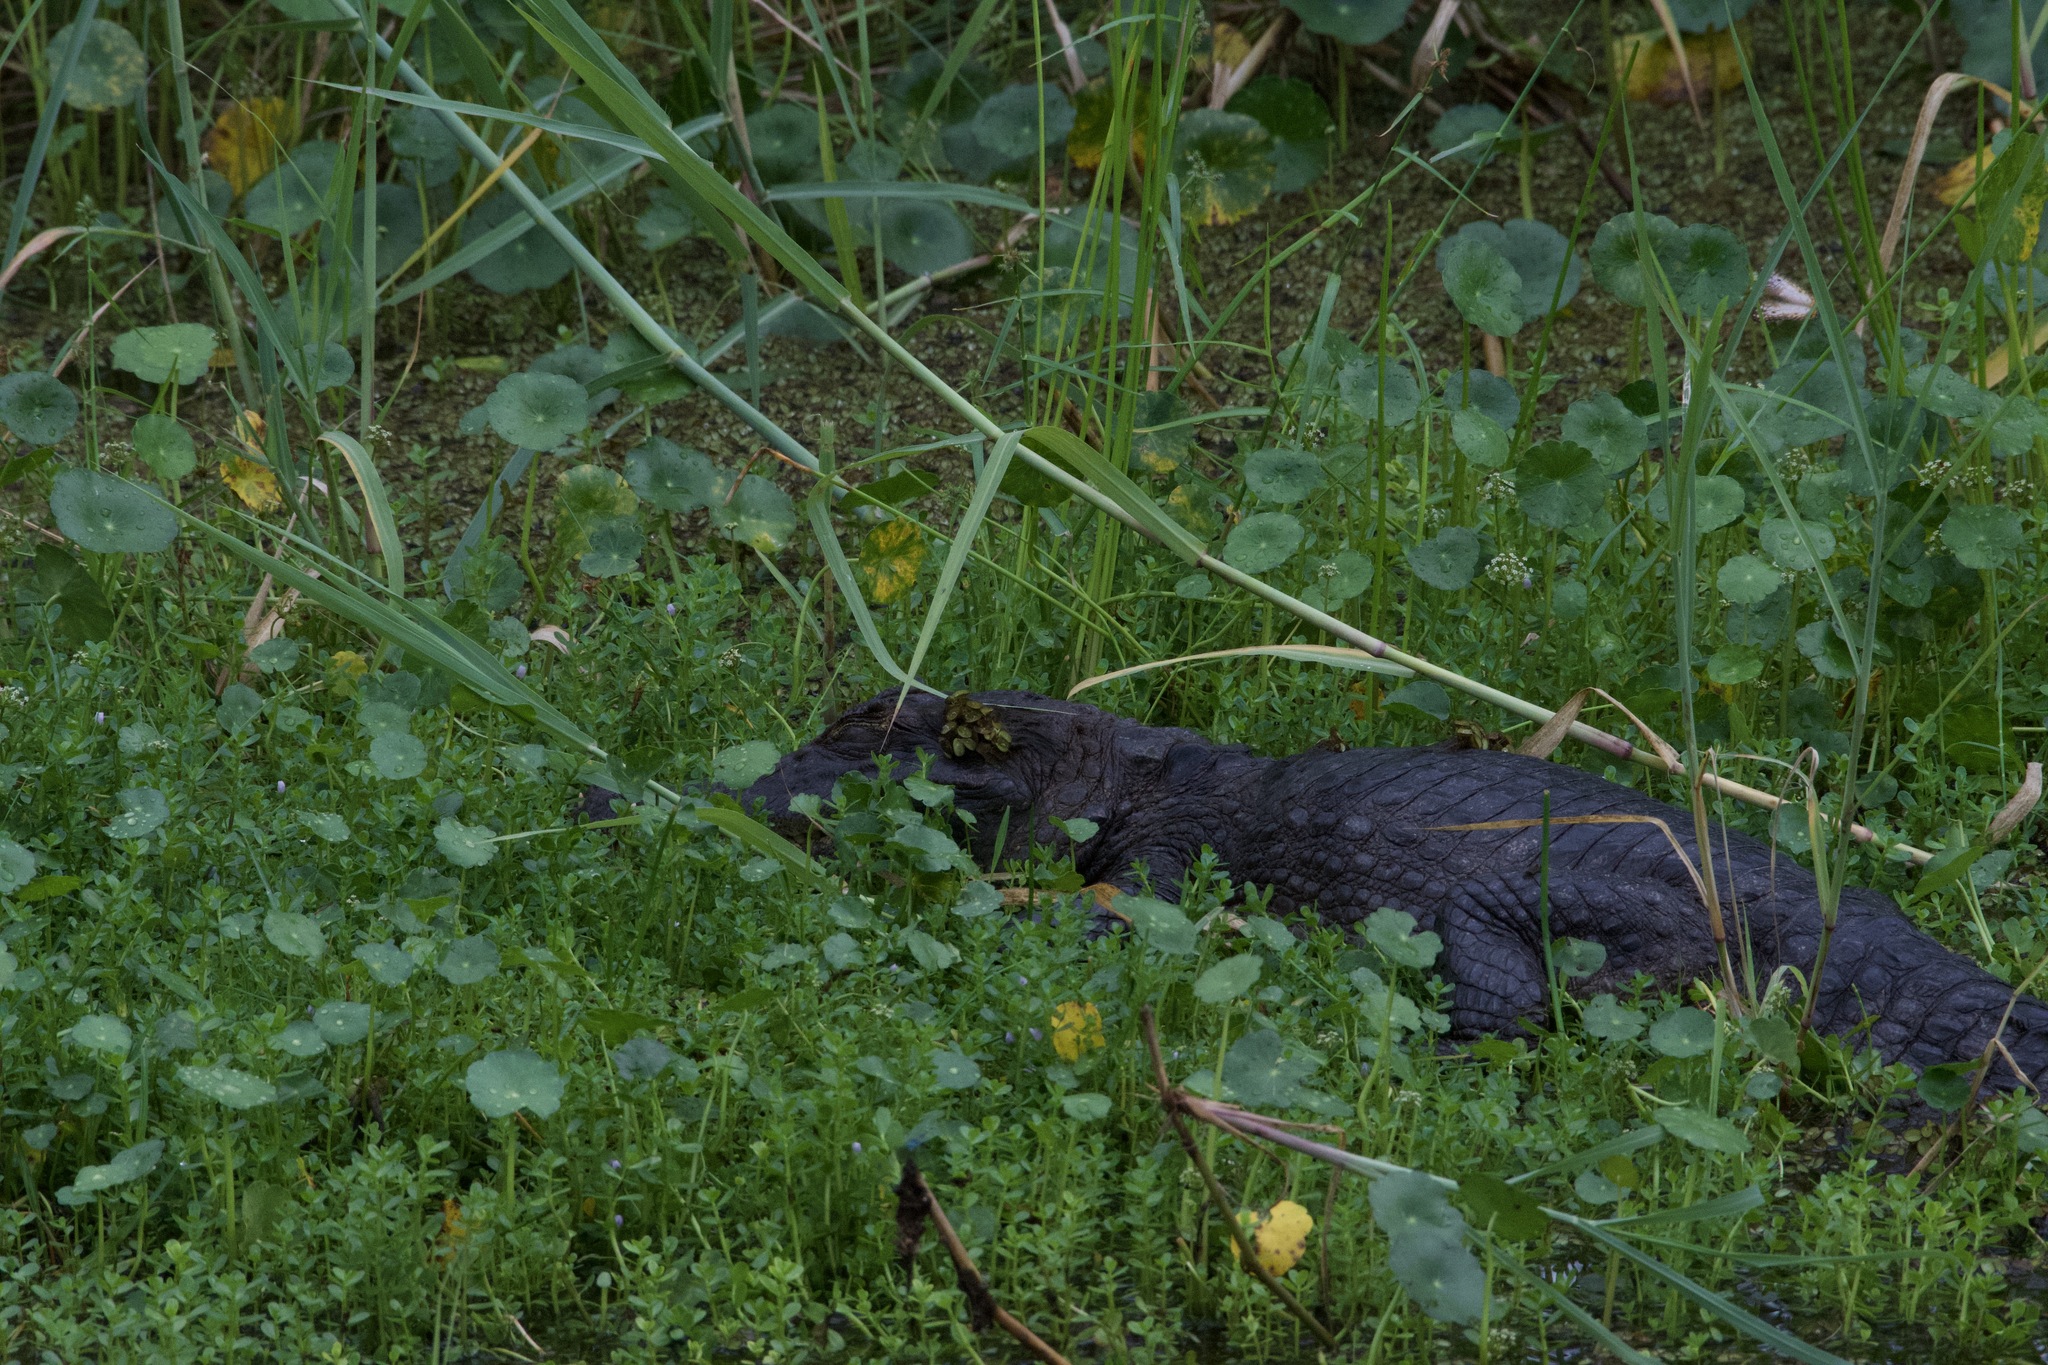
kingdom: Animalia
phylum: Chordata
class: Crocodylia
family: Alligatoridae
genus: Caiman
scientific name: Caiman crocodilus
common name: Common caiman
